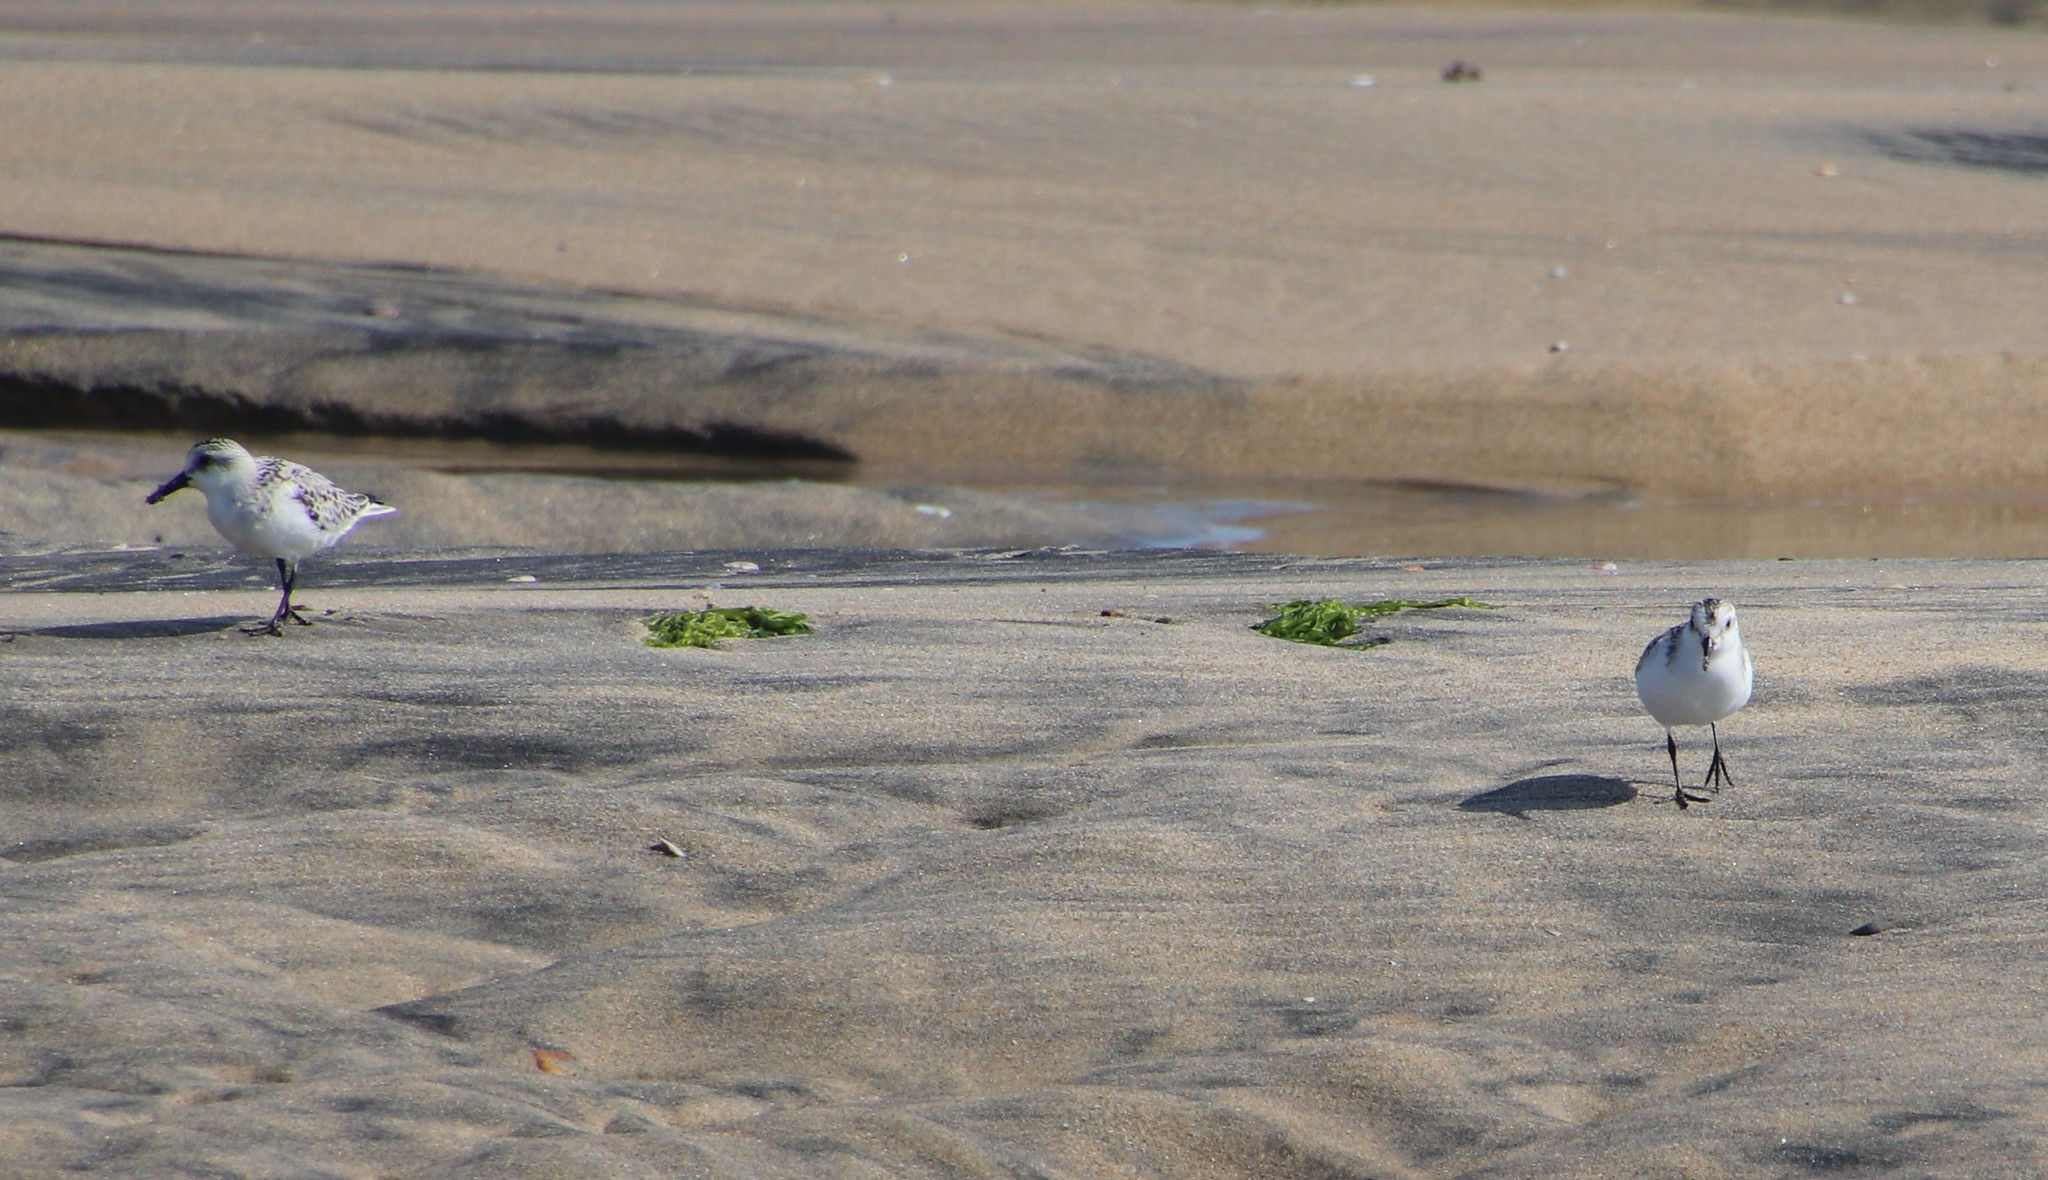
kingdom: Animalia
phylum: Chordata
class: Aves
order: Charadriiformes
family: Scolopacidae
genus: Calidris
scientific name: Calidris alba
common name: Sanderling
